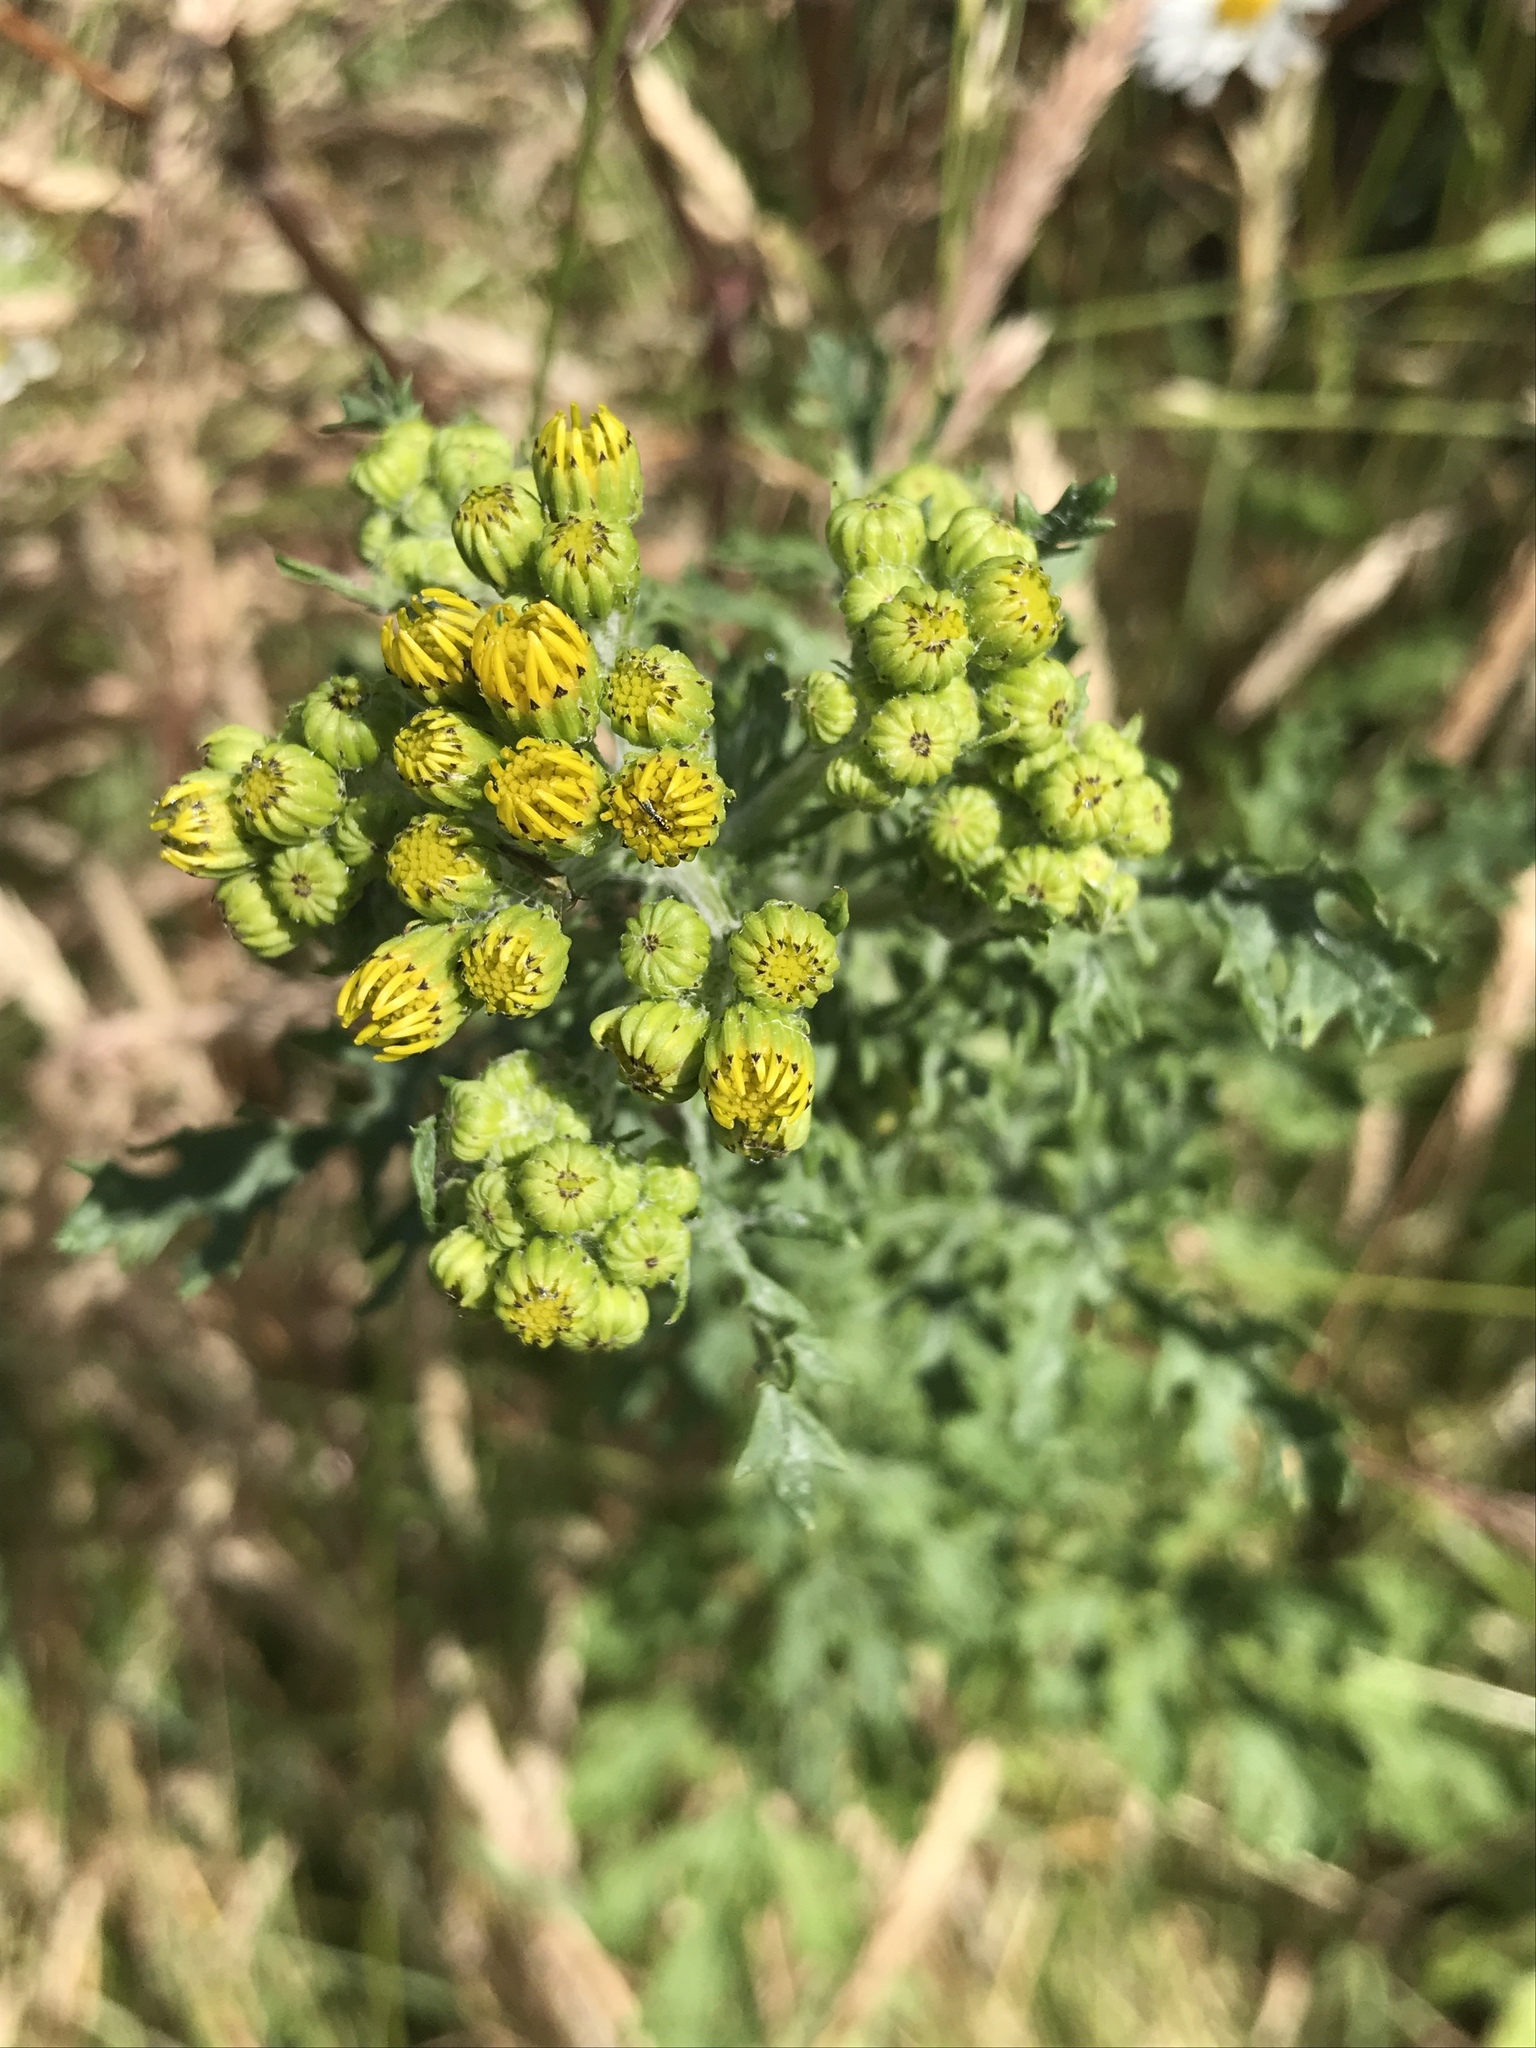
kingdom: Plantae
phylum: Tracheophyta
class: Magnoliopsida
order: Asterales
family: Asteraceae
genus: Jacobaea
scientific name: Jacobaea vulgaris
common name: Stinking willie
